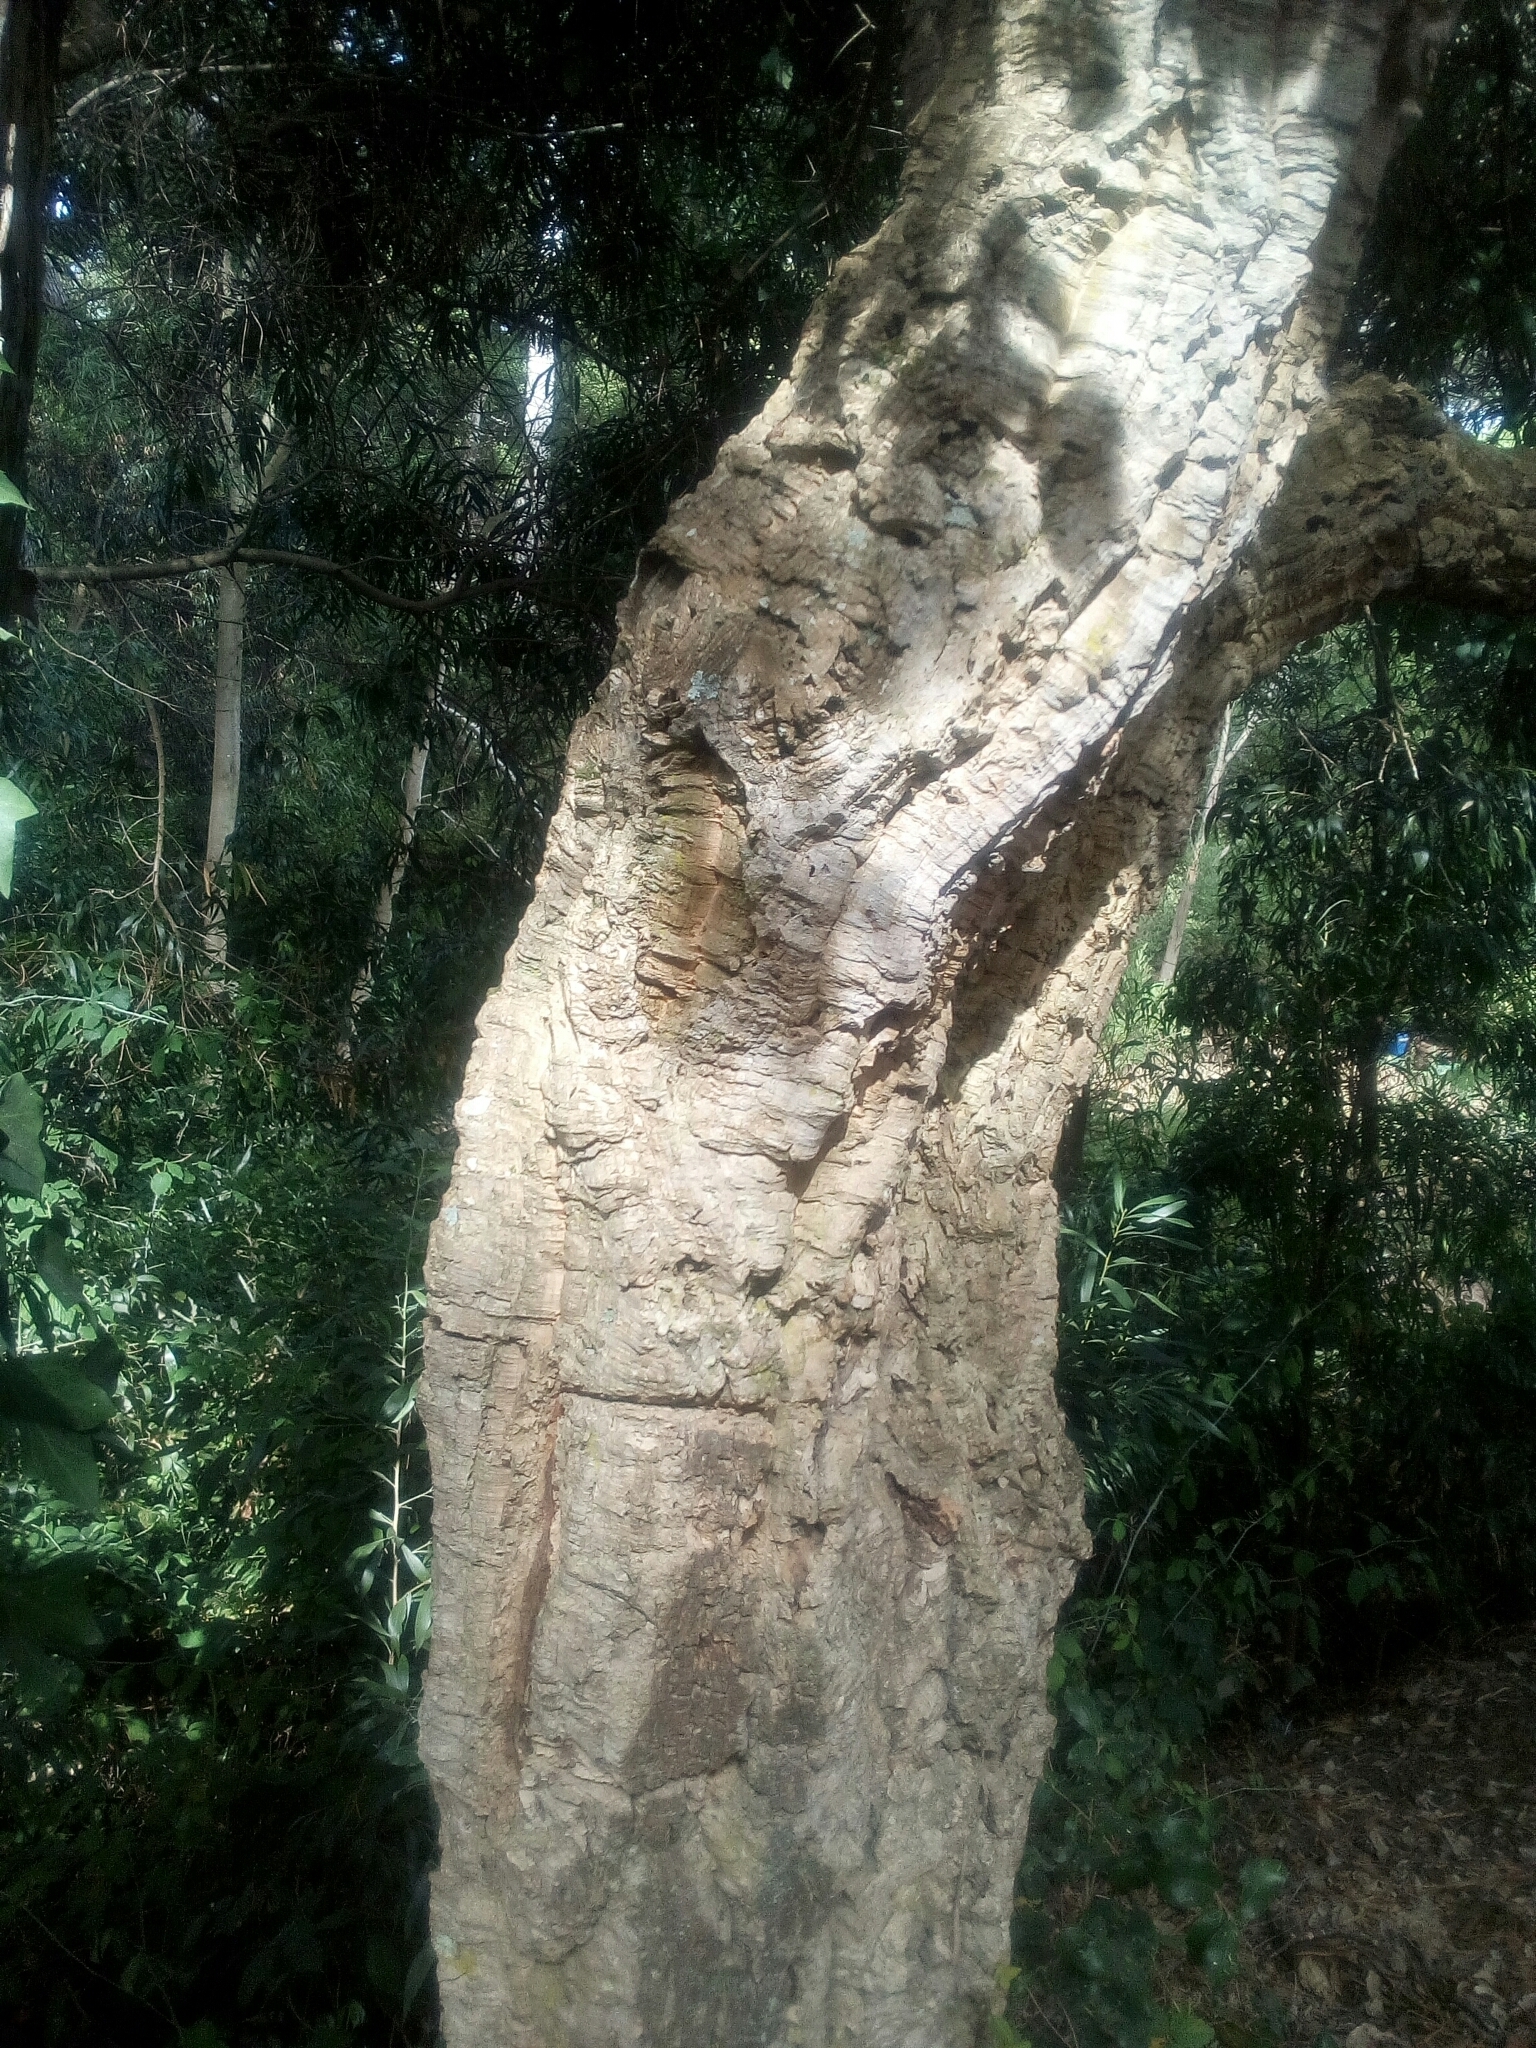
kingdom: Plantae
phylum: Tracheophyta
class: Magnoliopsida
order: Fagales
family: Fagaceae
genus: Quercus
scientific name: Quercus suber
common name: Cork oak
